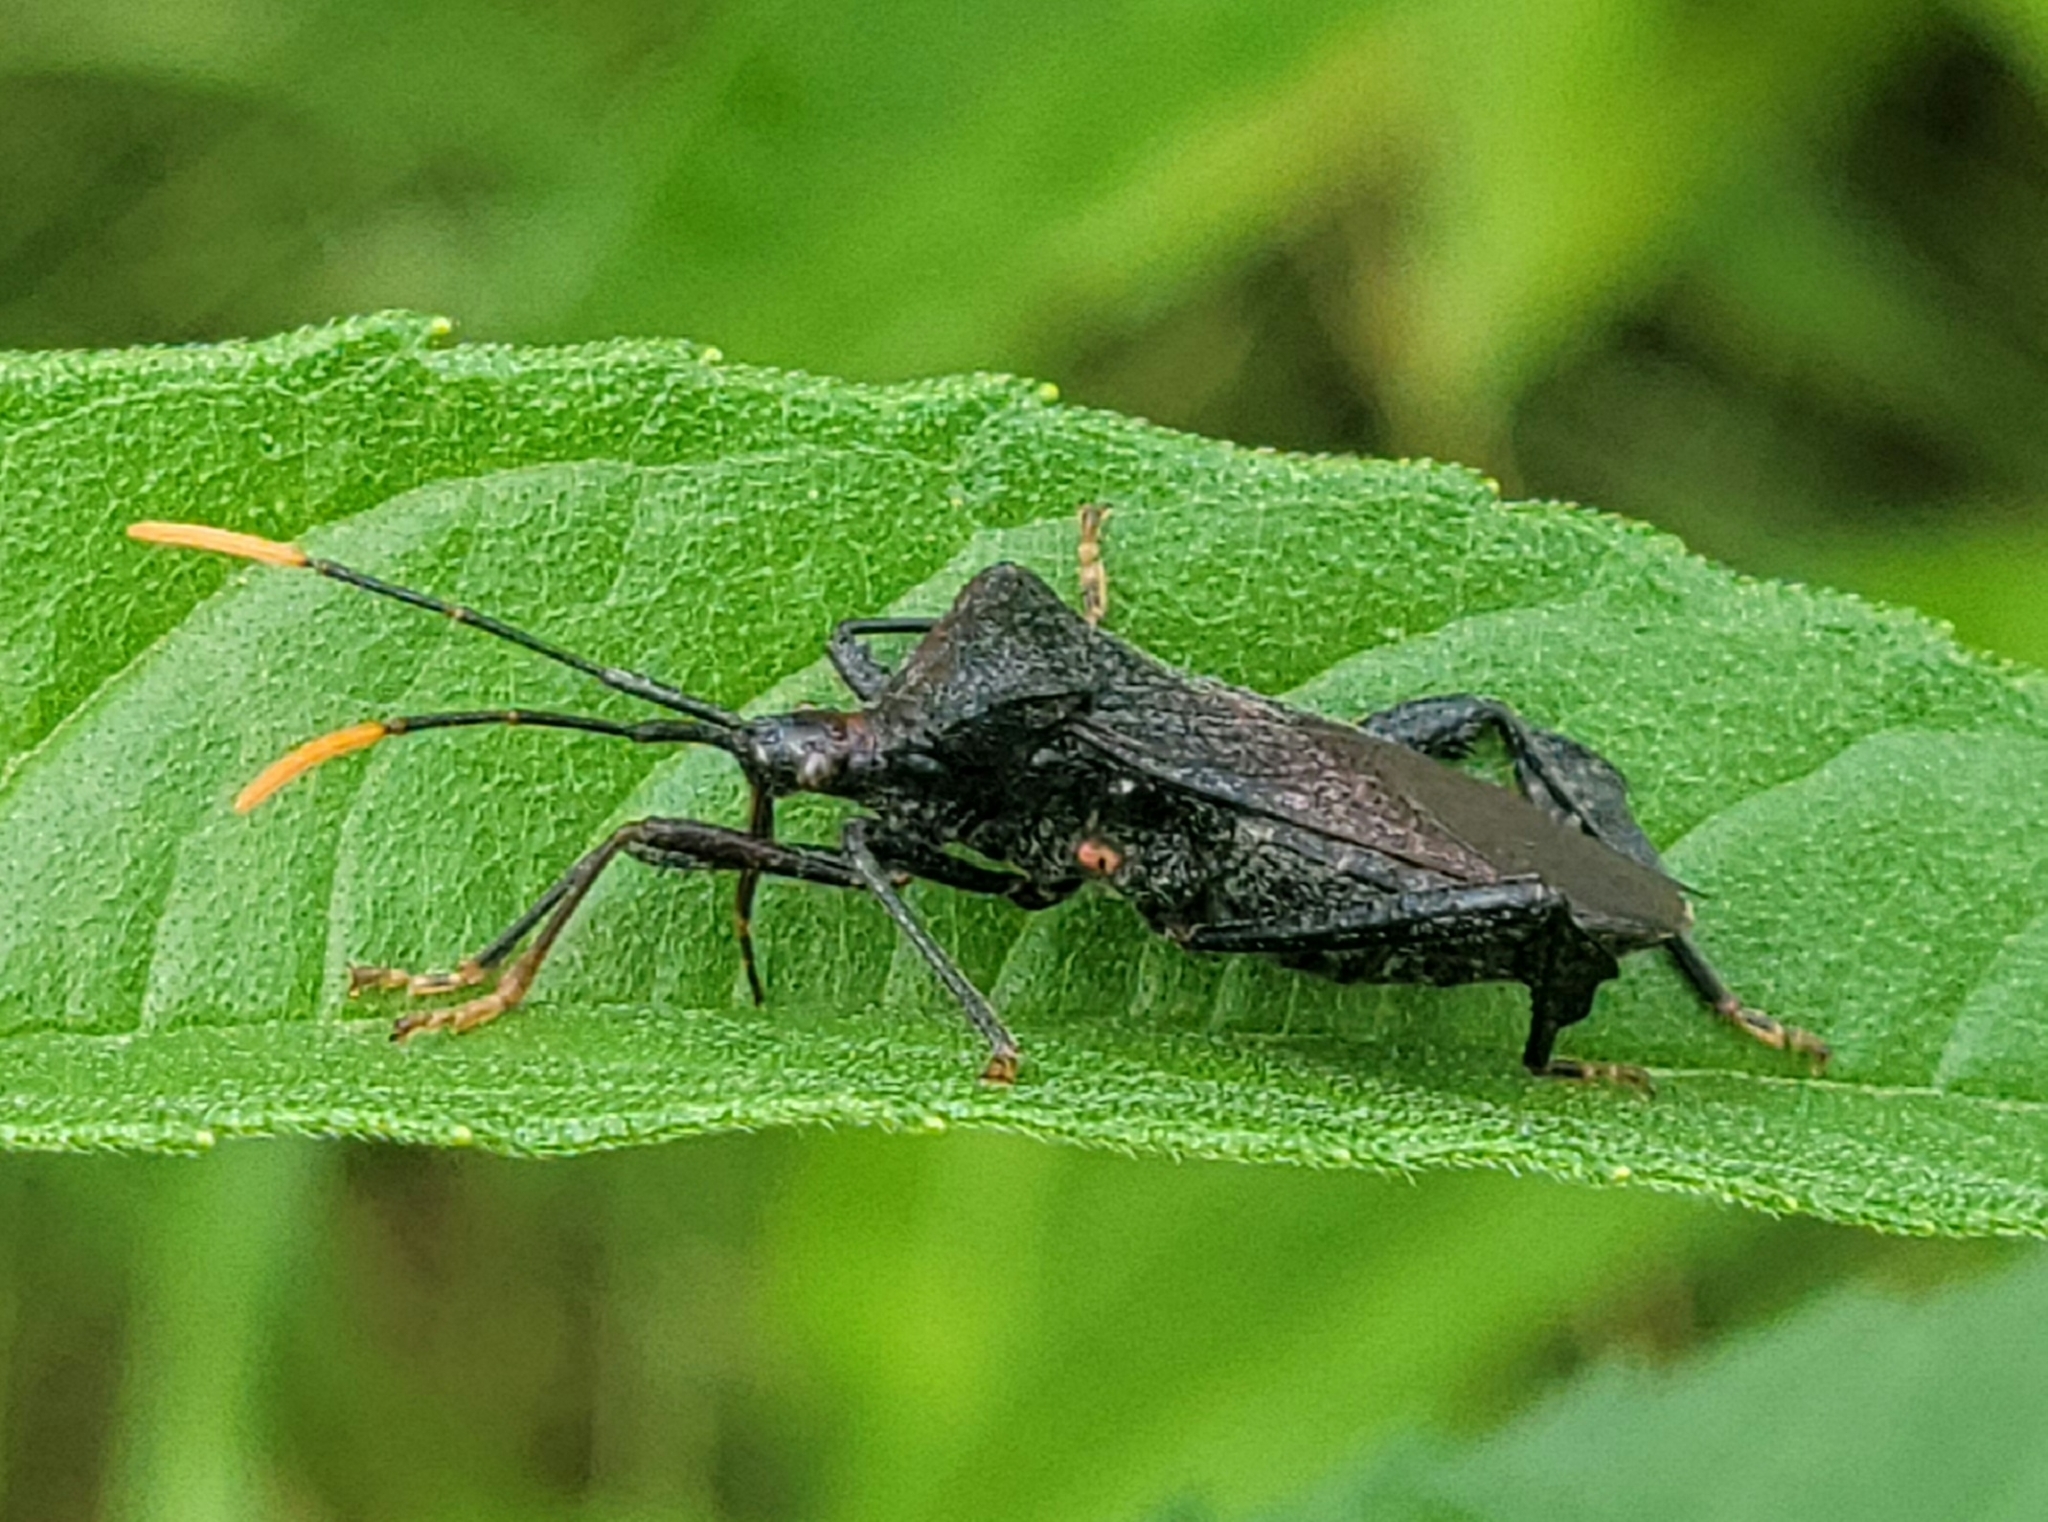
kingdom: Animalia
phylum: Arthropoda
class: Insecta
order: Hemiptera
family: Coreidae
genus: Acanthocephala
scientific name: Acanthocephala terminalis
